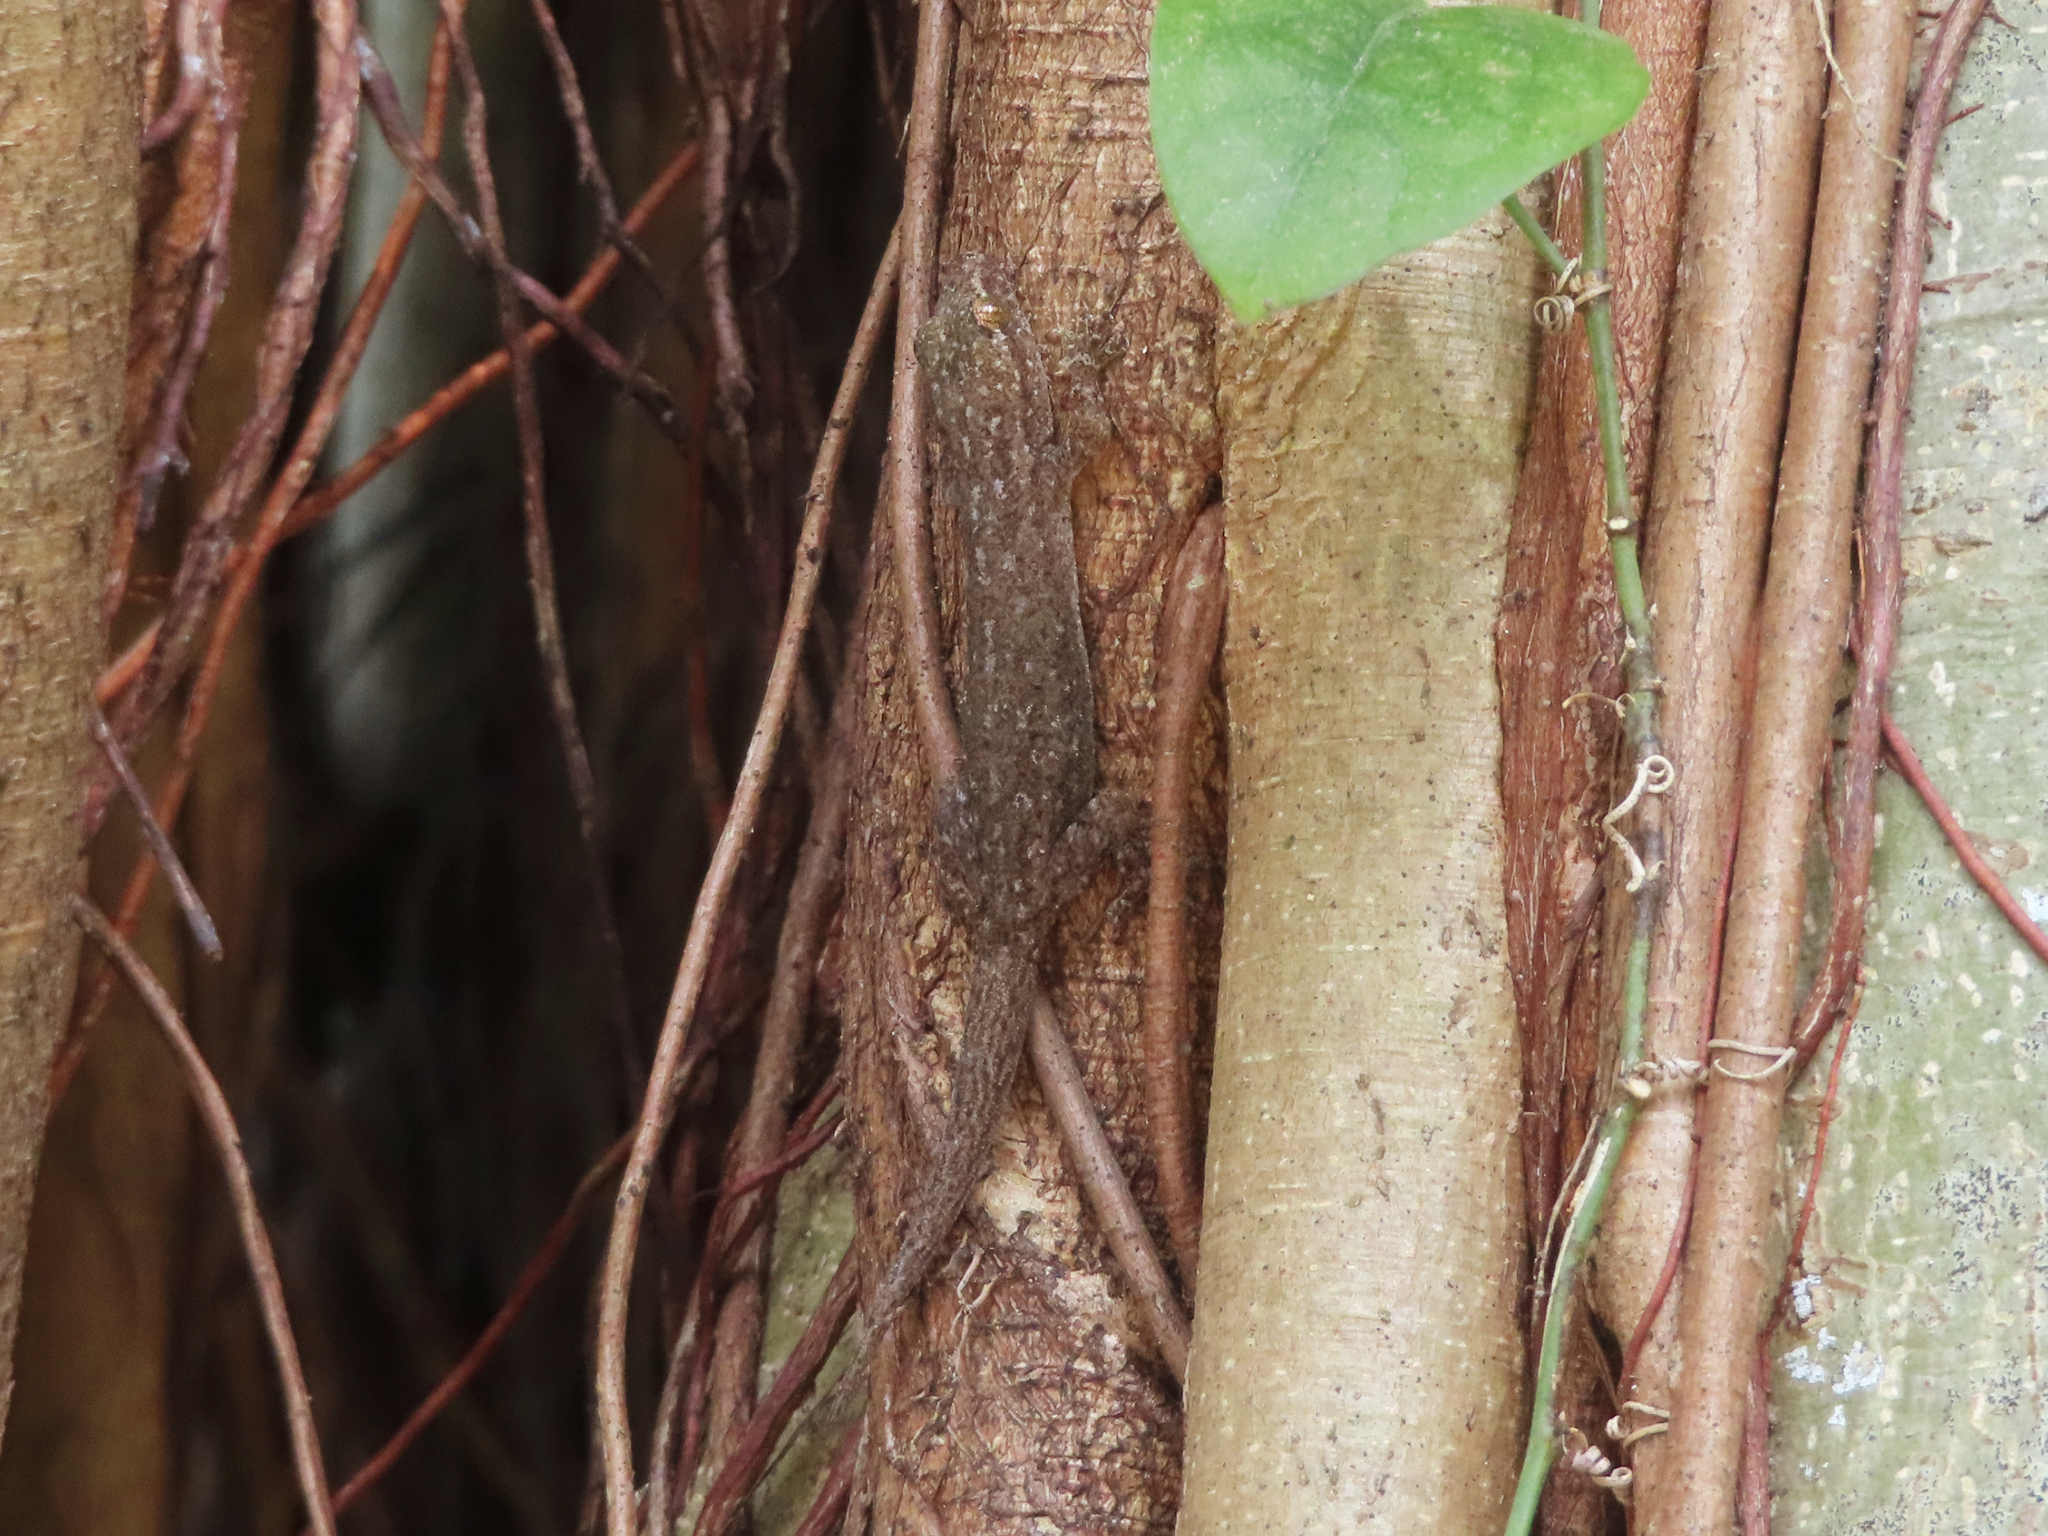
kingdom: Animalia
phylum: Chordata
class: Squamata
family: Gekkonidae
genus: Hemidactylus
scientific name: Hemidactylus frenatus
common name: Common house gecko
